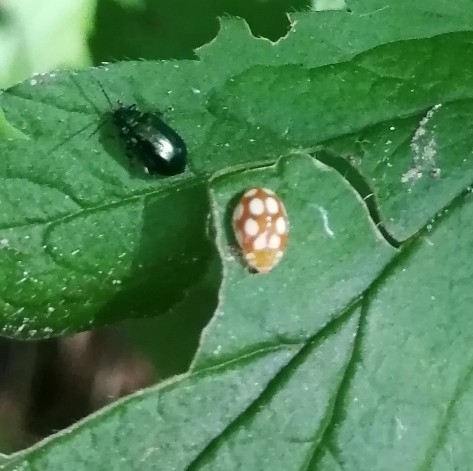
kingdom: Animalia
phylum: Arthropoda
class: Insecta
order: Coleoptera
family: Coccinellidae
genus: Vibidia
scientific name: Vibidia duodecimguttata
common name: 12-spot ladybird
